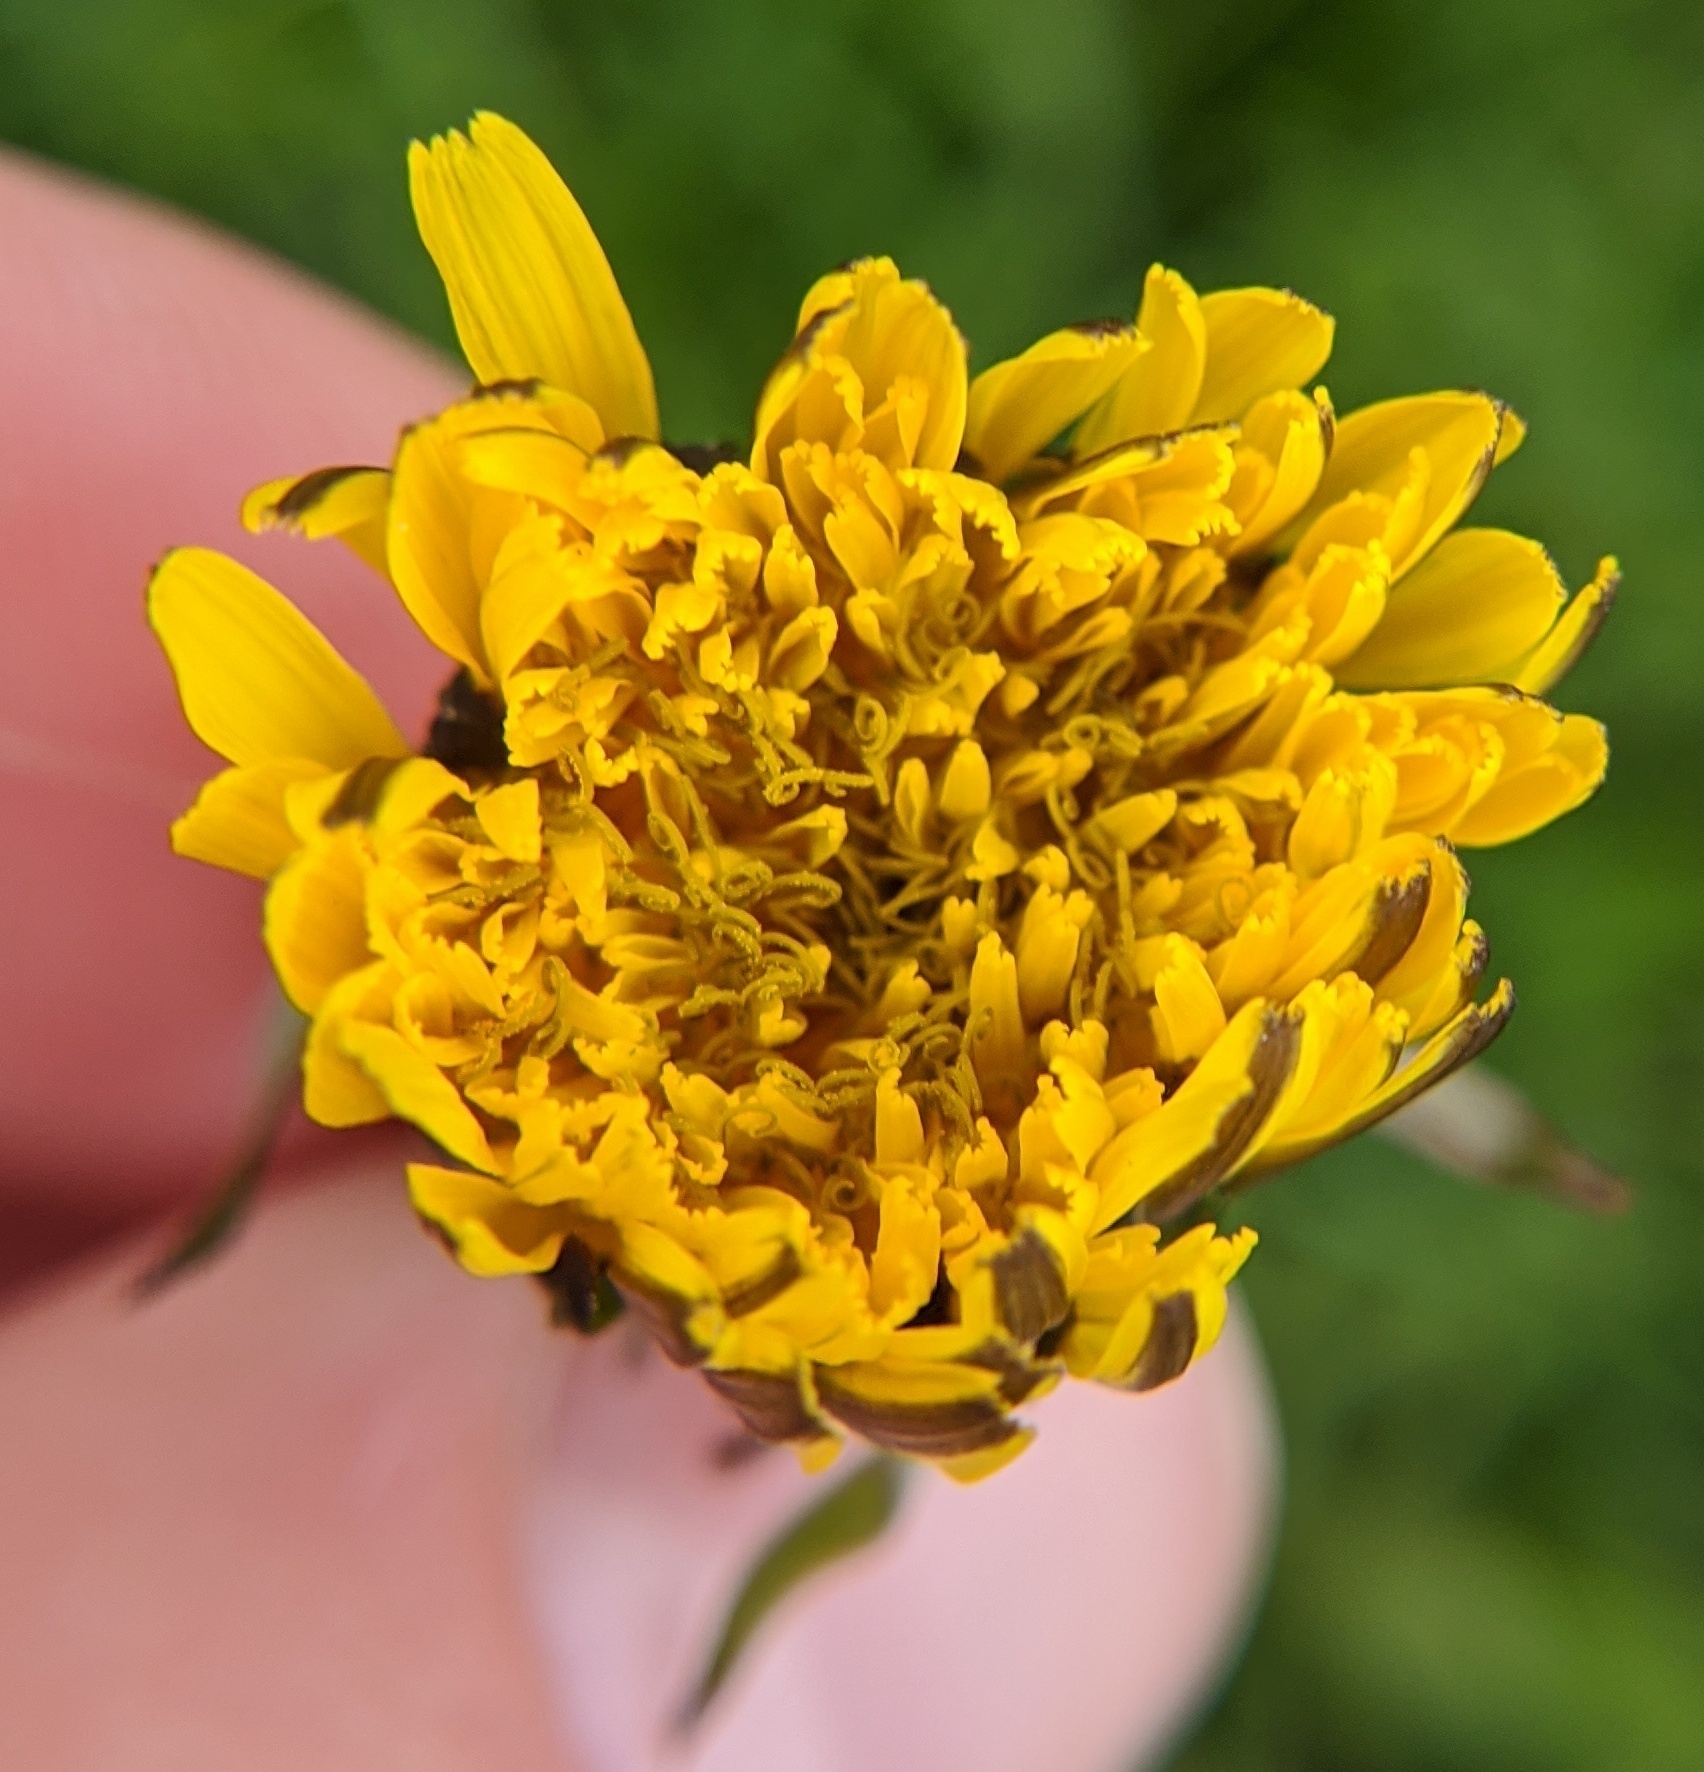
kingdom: Plantae
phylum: Tracheophyta
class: Magnoliopsida
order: Asterales
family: Asteraceae
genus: Taraxacum
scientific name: Taraxacum officinale
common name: Common dandelion
